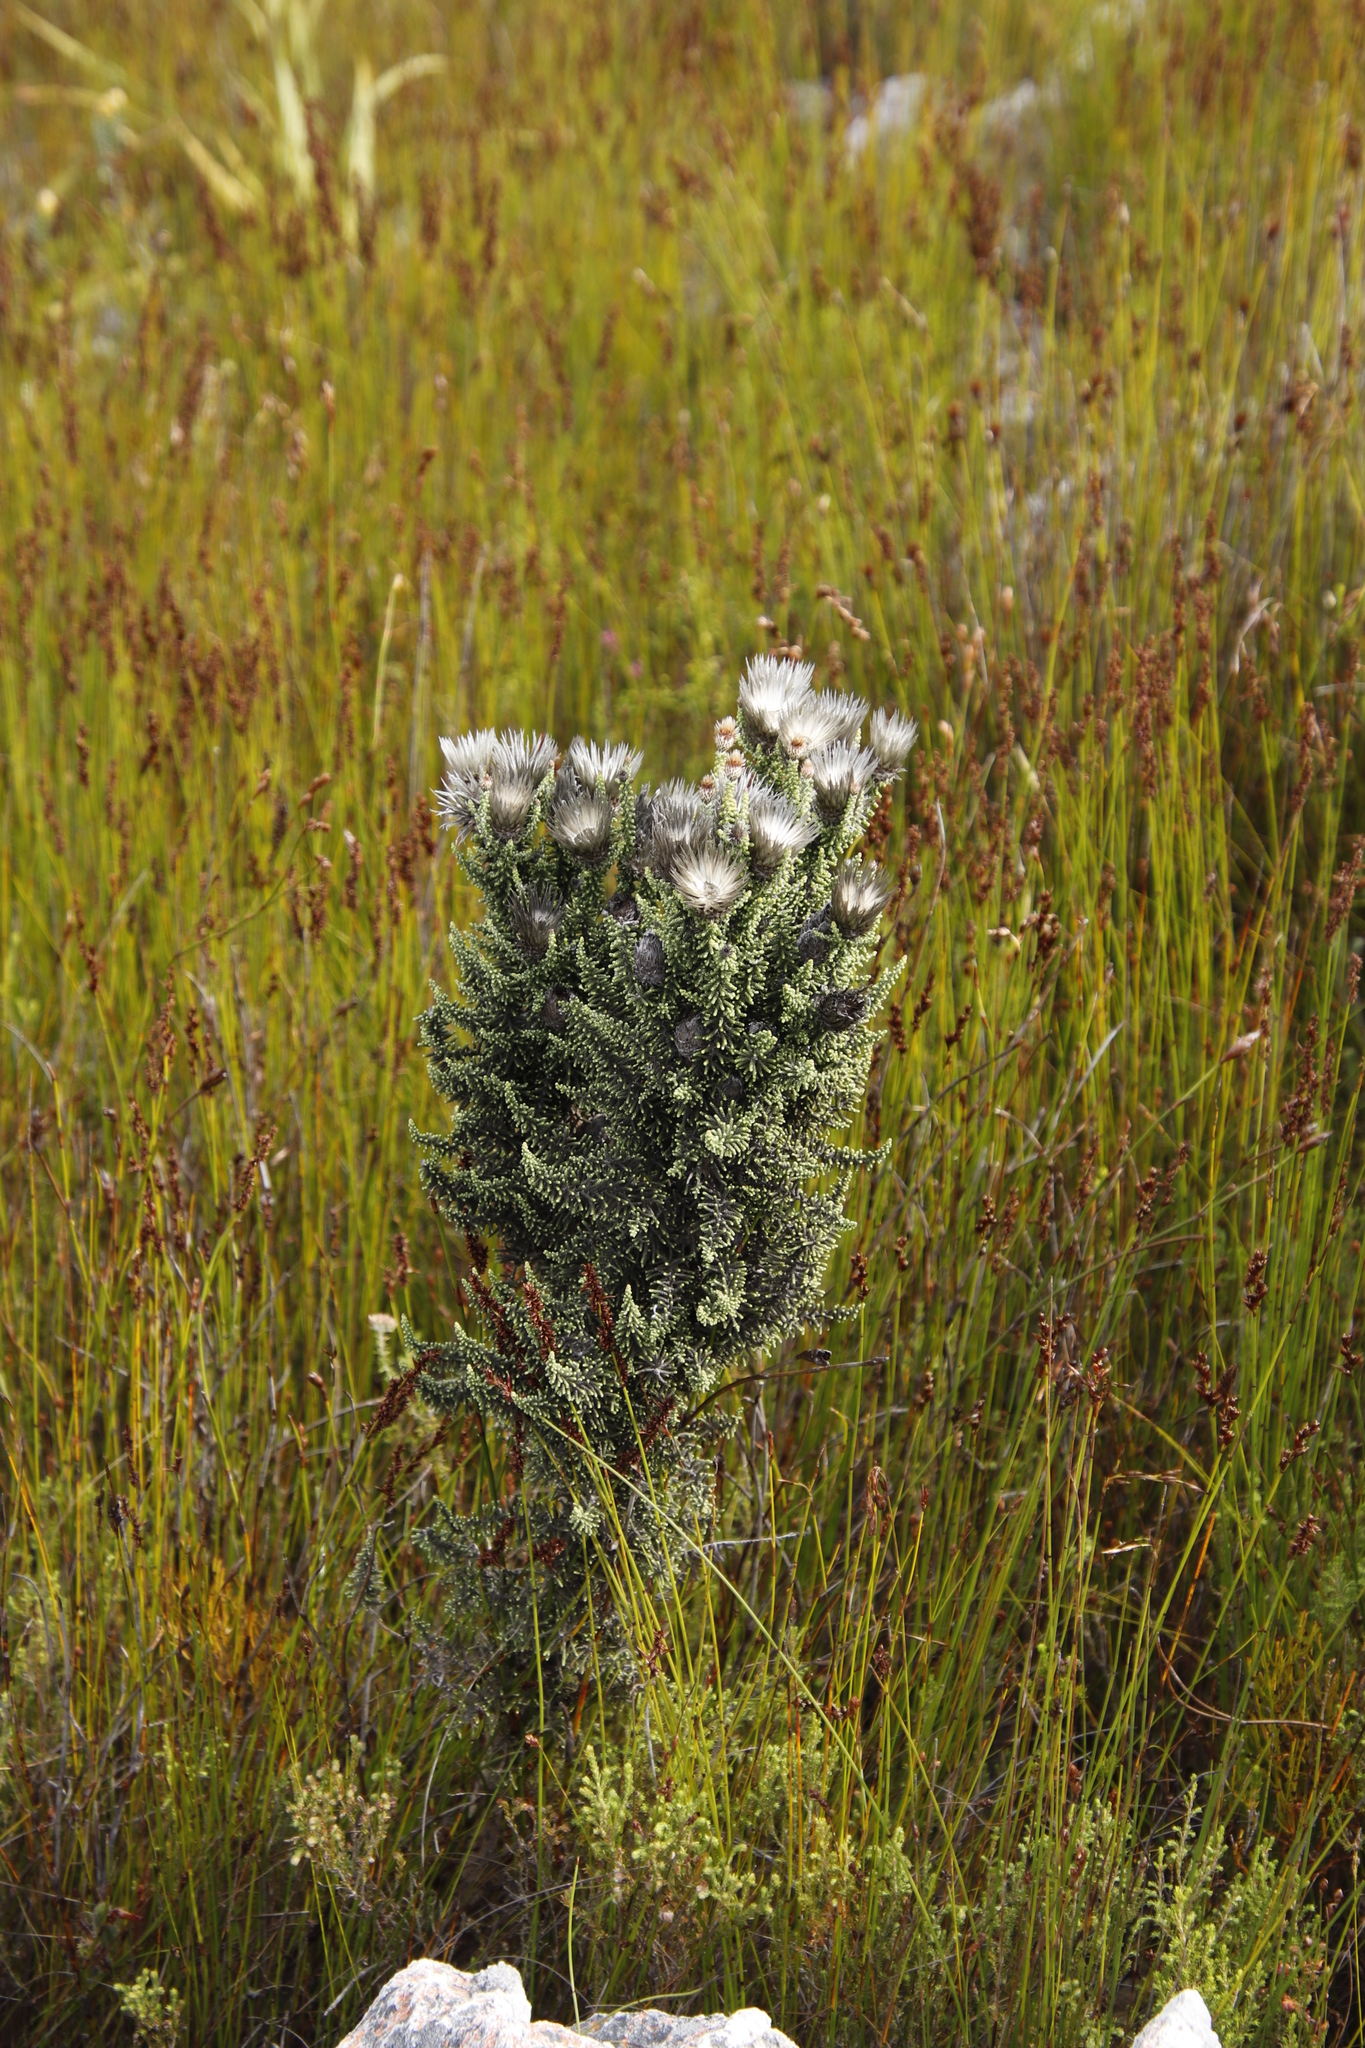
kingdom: Plantae
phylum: Tracheophyta
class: Magnoliopsida
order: Asterales
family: Asteraceae
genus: Phaenocoma
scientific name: Phaenocoma prolifera
